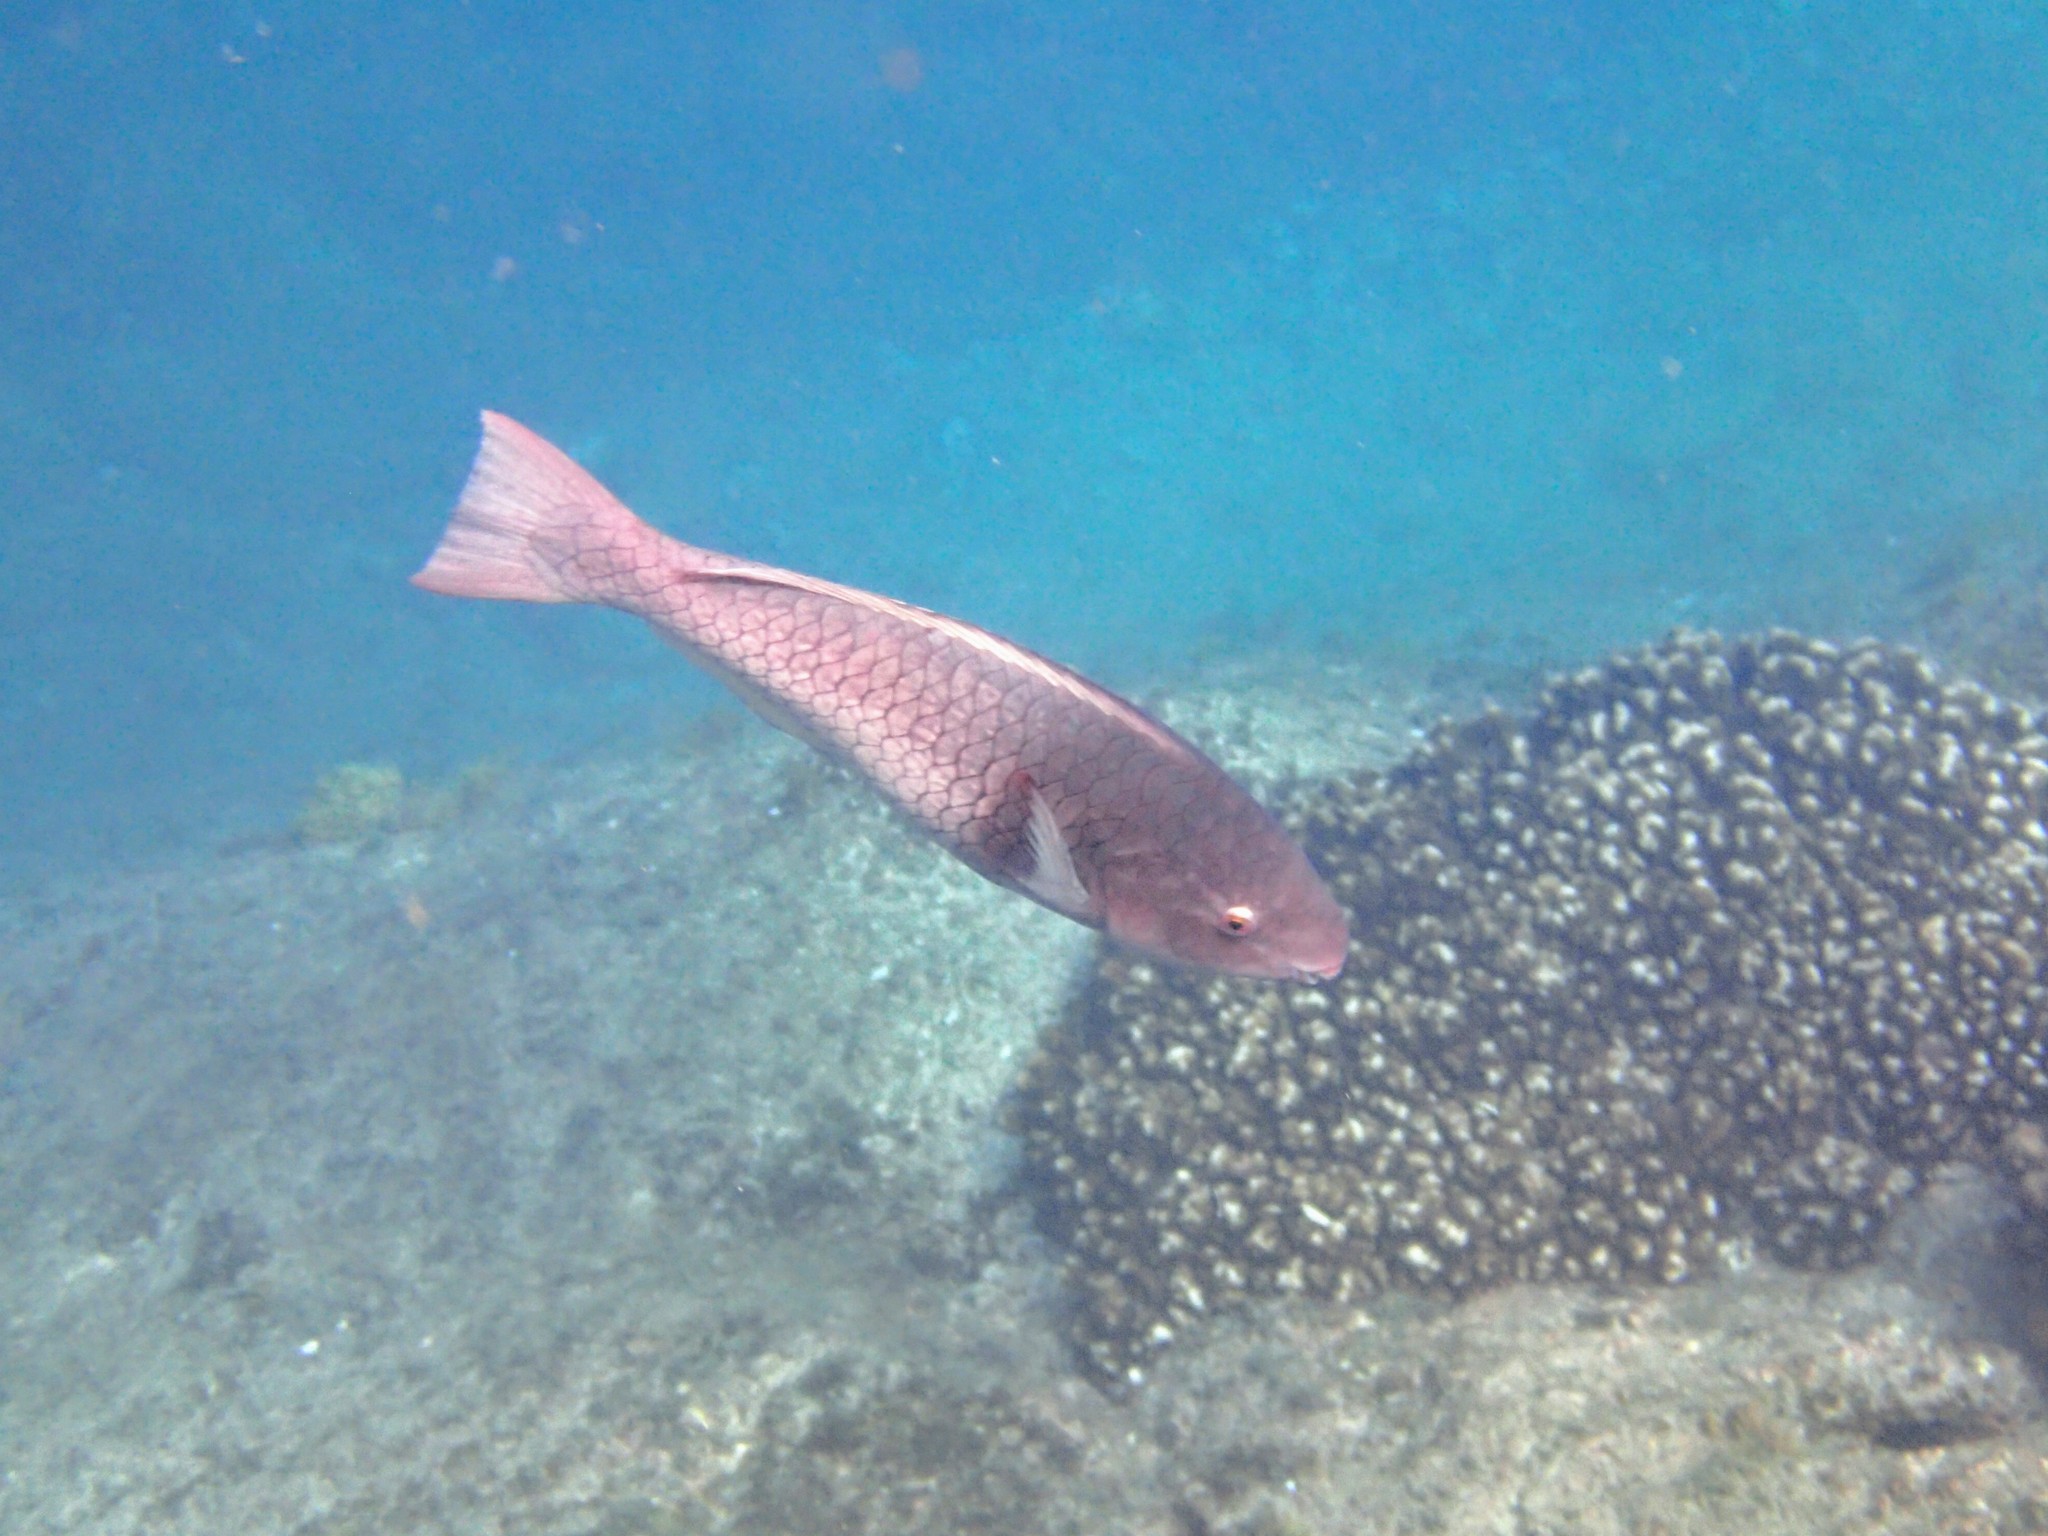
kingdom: Animalia
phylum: Chordata
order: Perciformes
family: Scaridae
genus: Scarus
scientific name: Scarus rubroviolaceus
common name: Ember parrotfish
